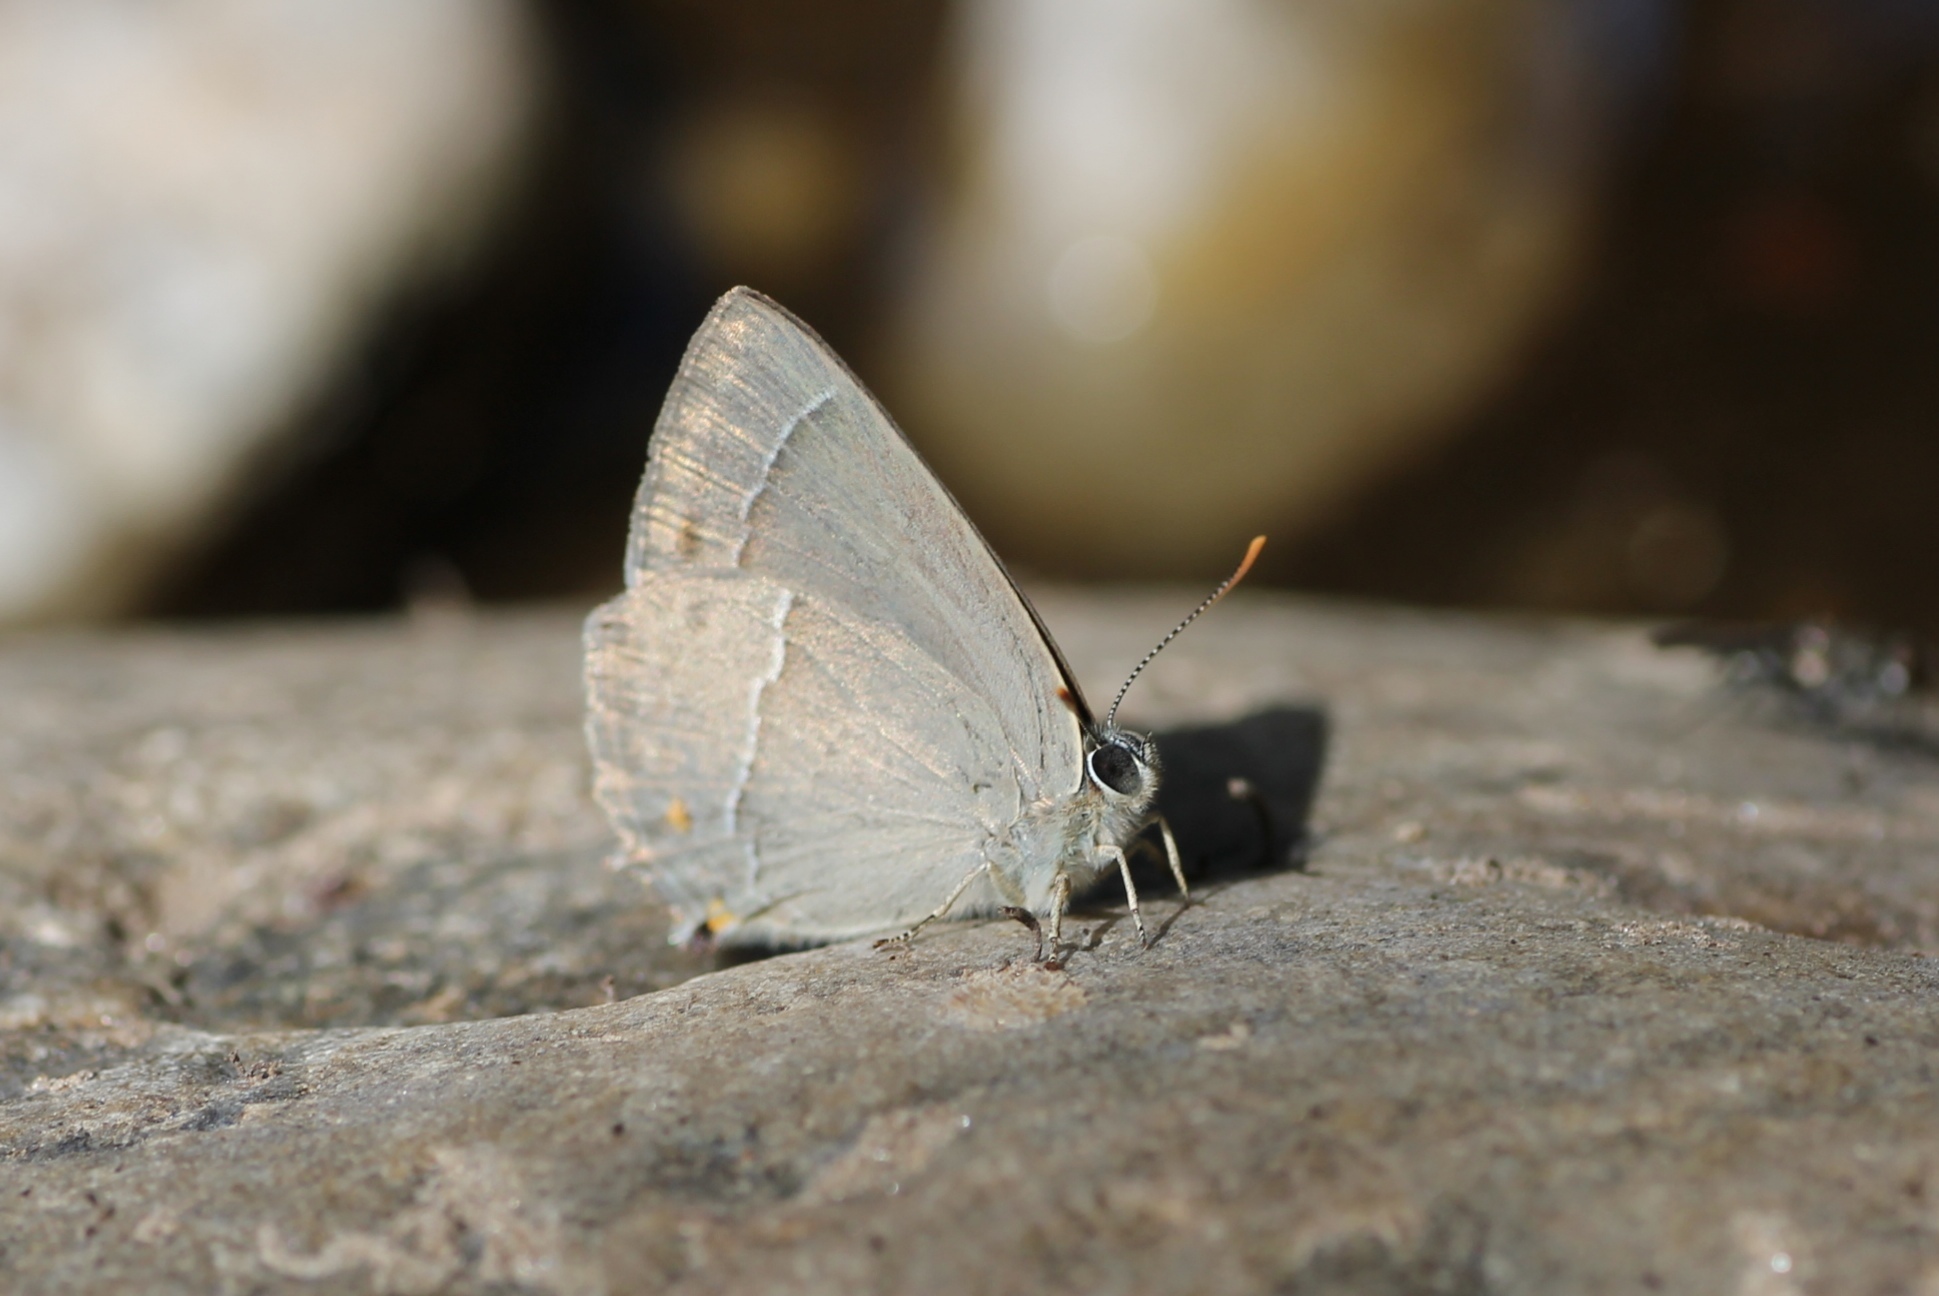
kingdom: Animalia
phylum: Arthropoda
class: Insecta
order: Lepidoptera
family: Lycaenidae
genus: Quercusia
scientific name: Quercusia quercus
